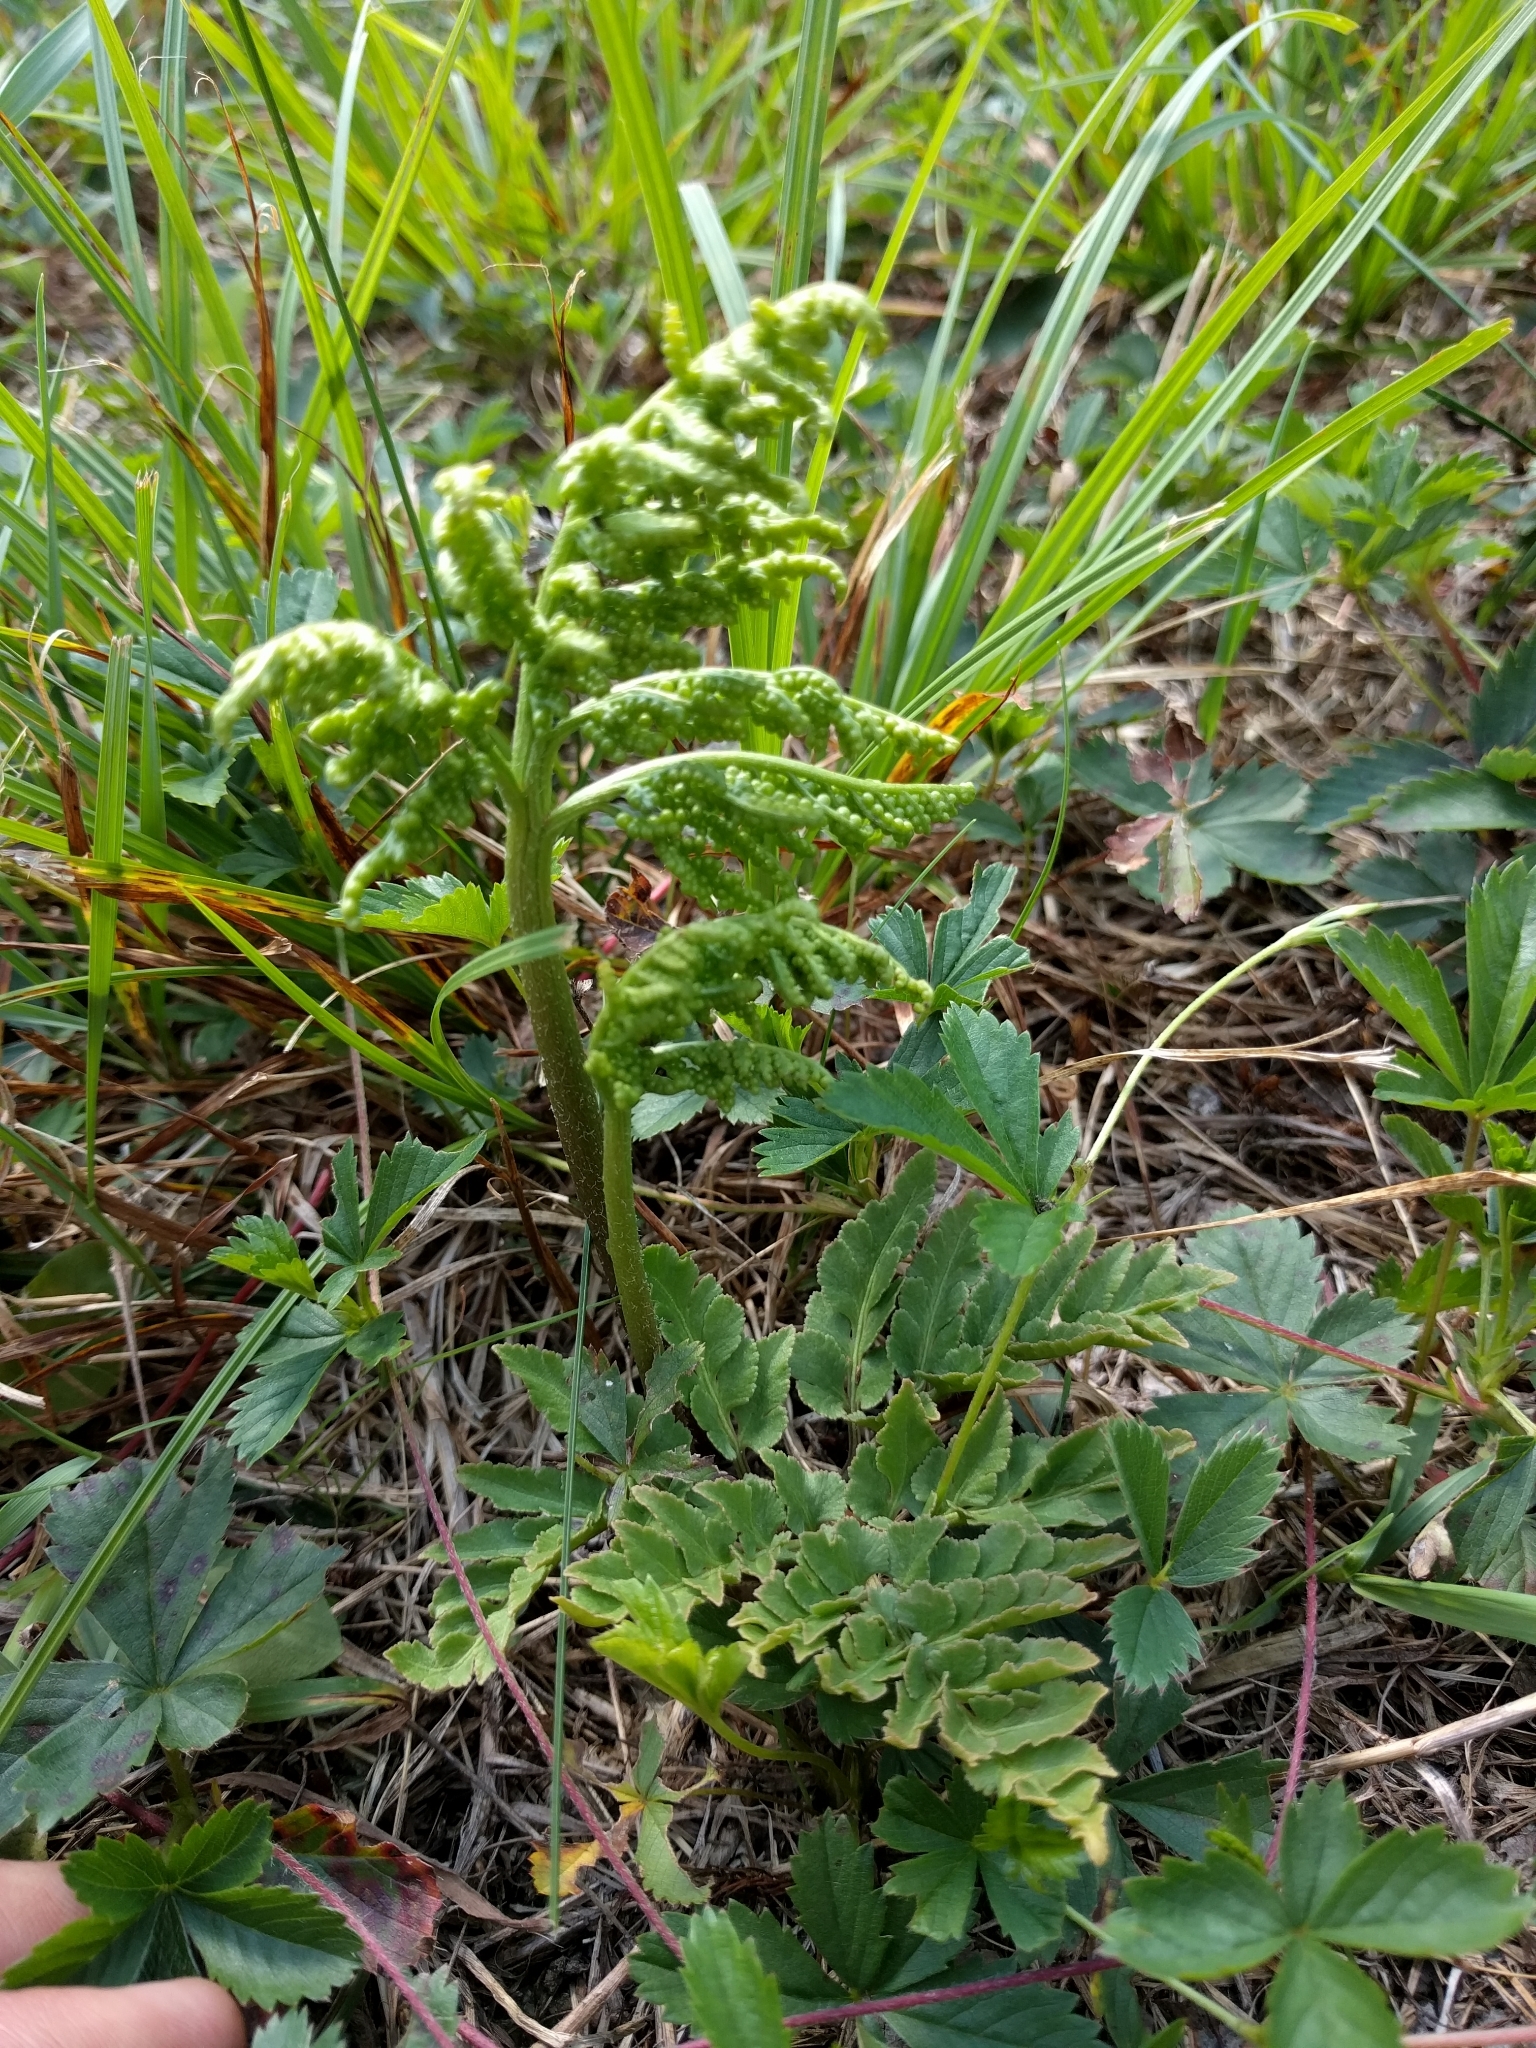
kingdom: Plantae
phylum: Tracheophyta
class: Polypodiopsida
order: Ophioglossales
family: Ophioglossaceae
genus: Sceptridium
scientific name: Sceptridium multifidum
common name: Leathery grape fern
